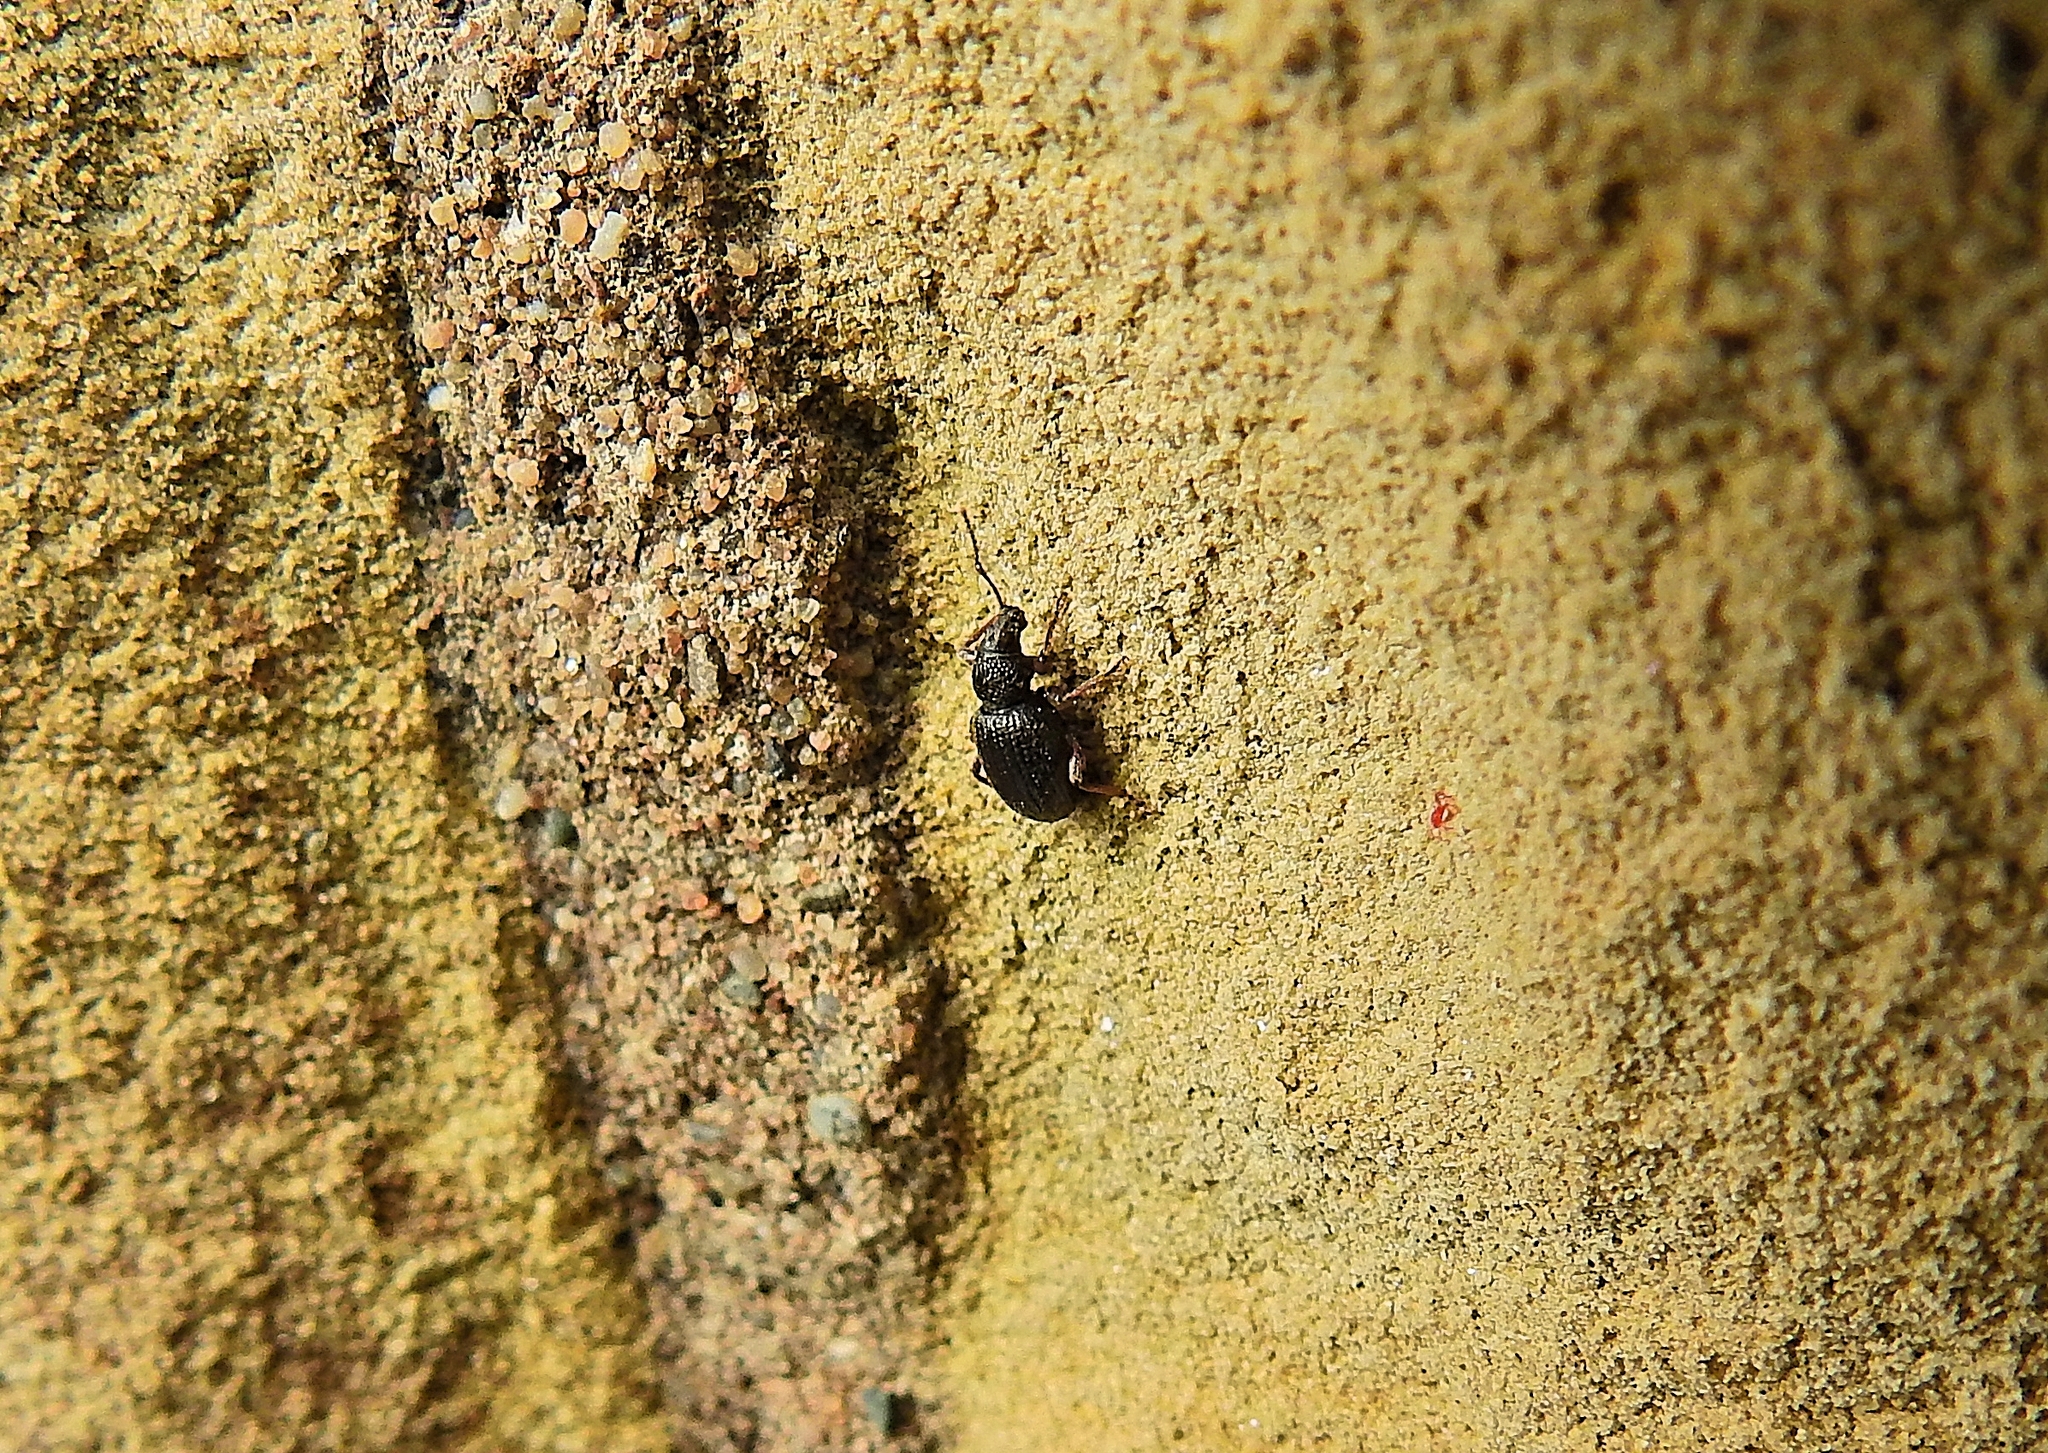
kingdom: Animalia
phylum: Arthropoda
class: Insecta
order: Coleoptera
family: Curculionidae
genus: Otiorhynchus
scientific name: Otiorhynchus ovatus
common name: Strawberry root weevil
